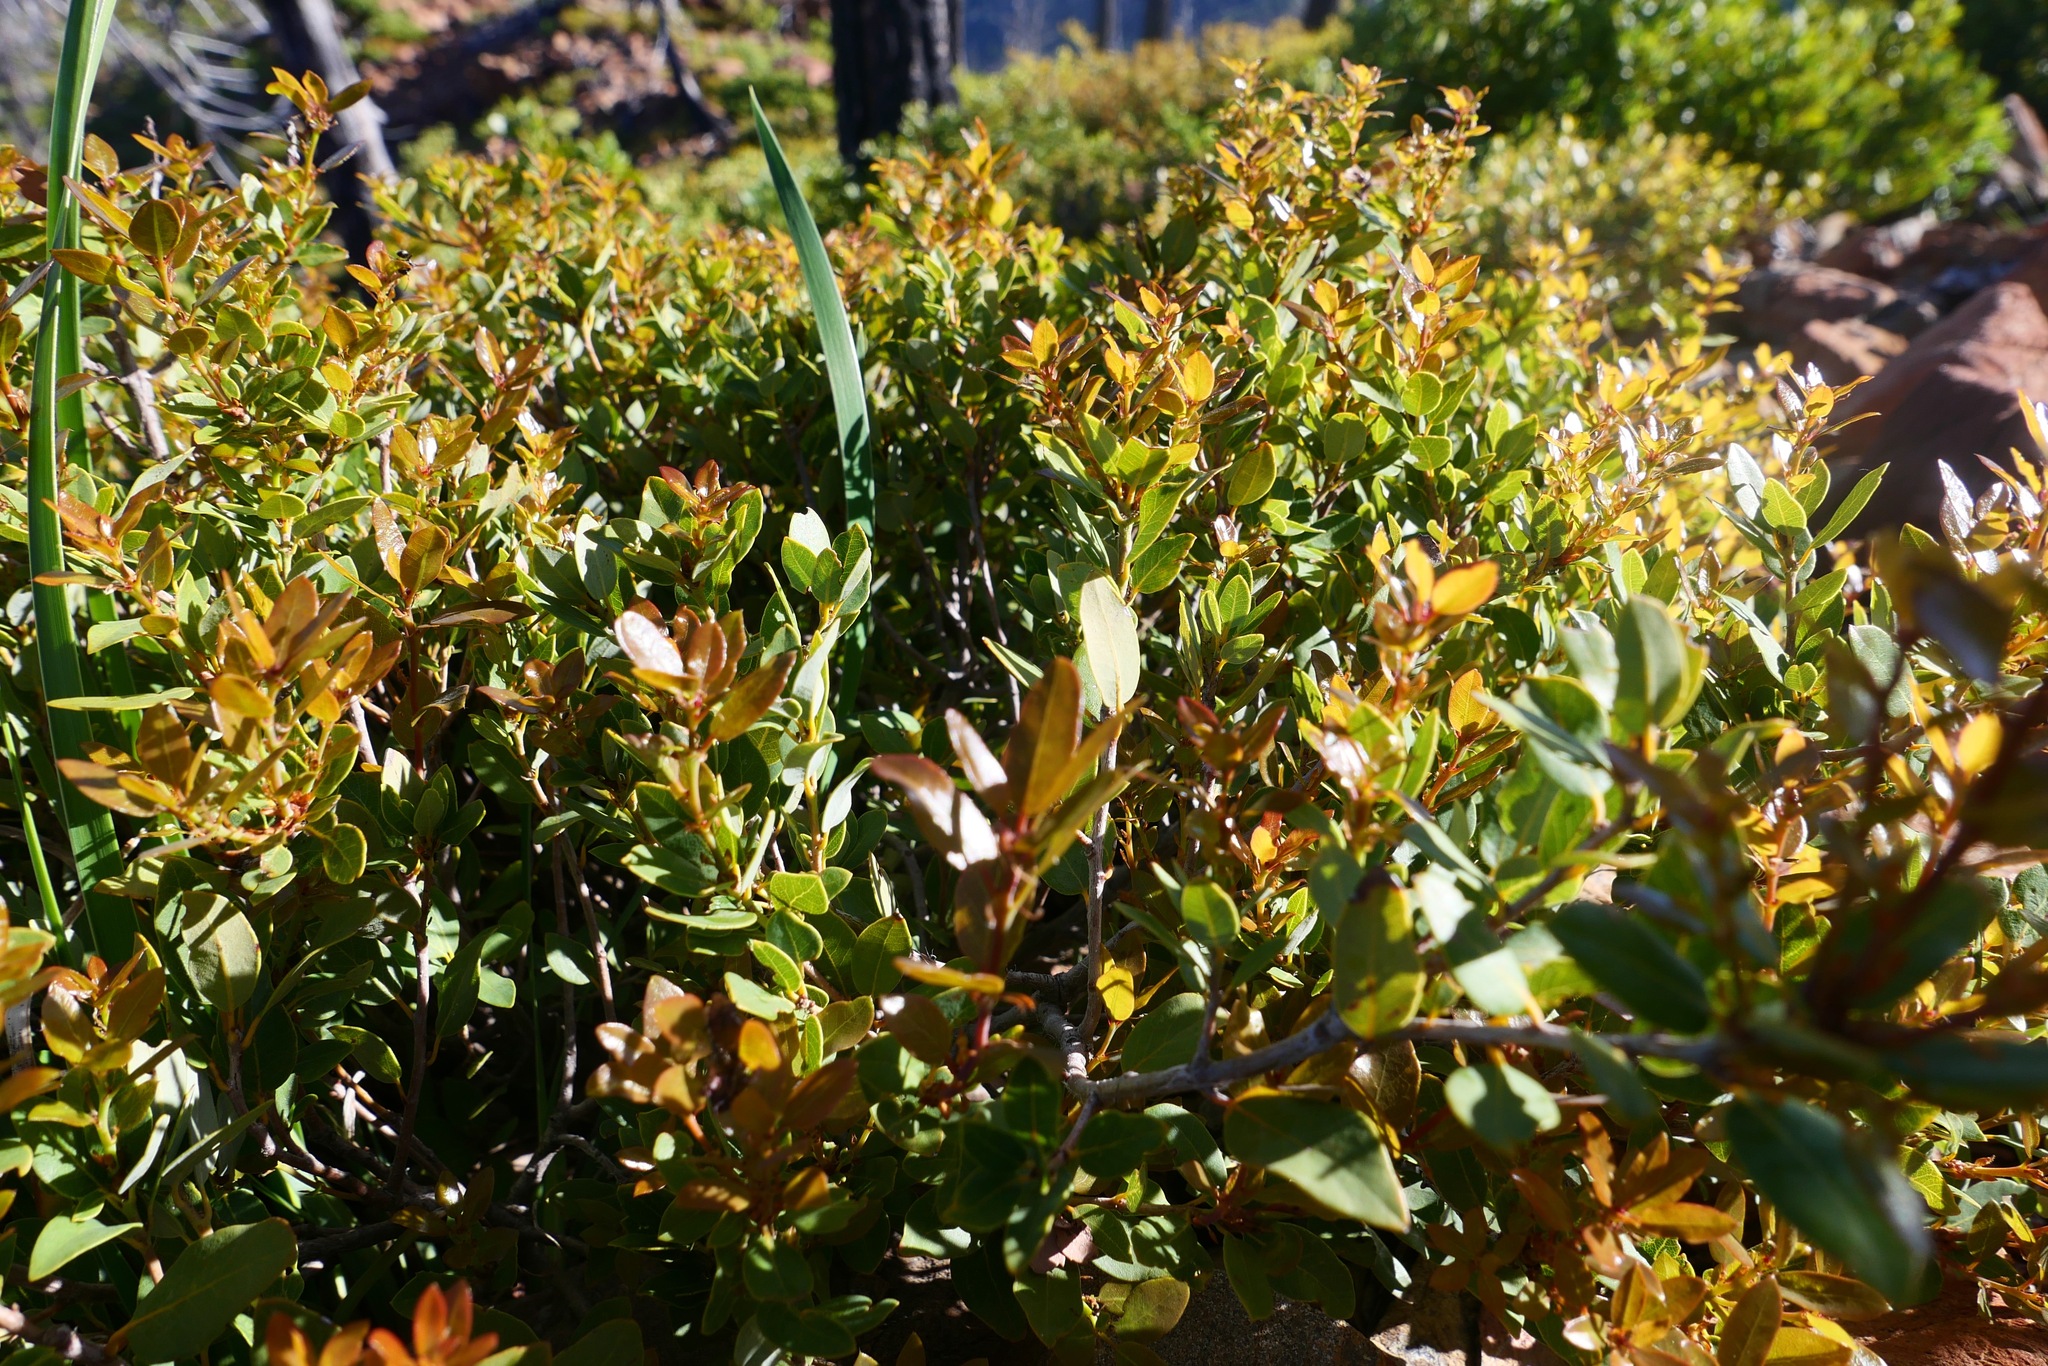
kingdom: Plantae
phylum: Tracheophyta
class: Magnoliopsida
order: Fagales
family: Fagaceae
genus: Quercus
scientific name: Quercus vacciniifolia
